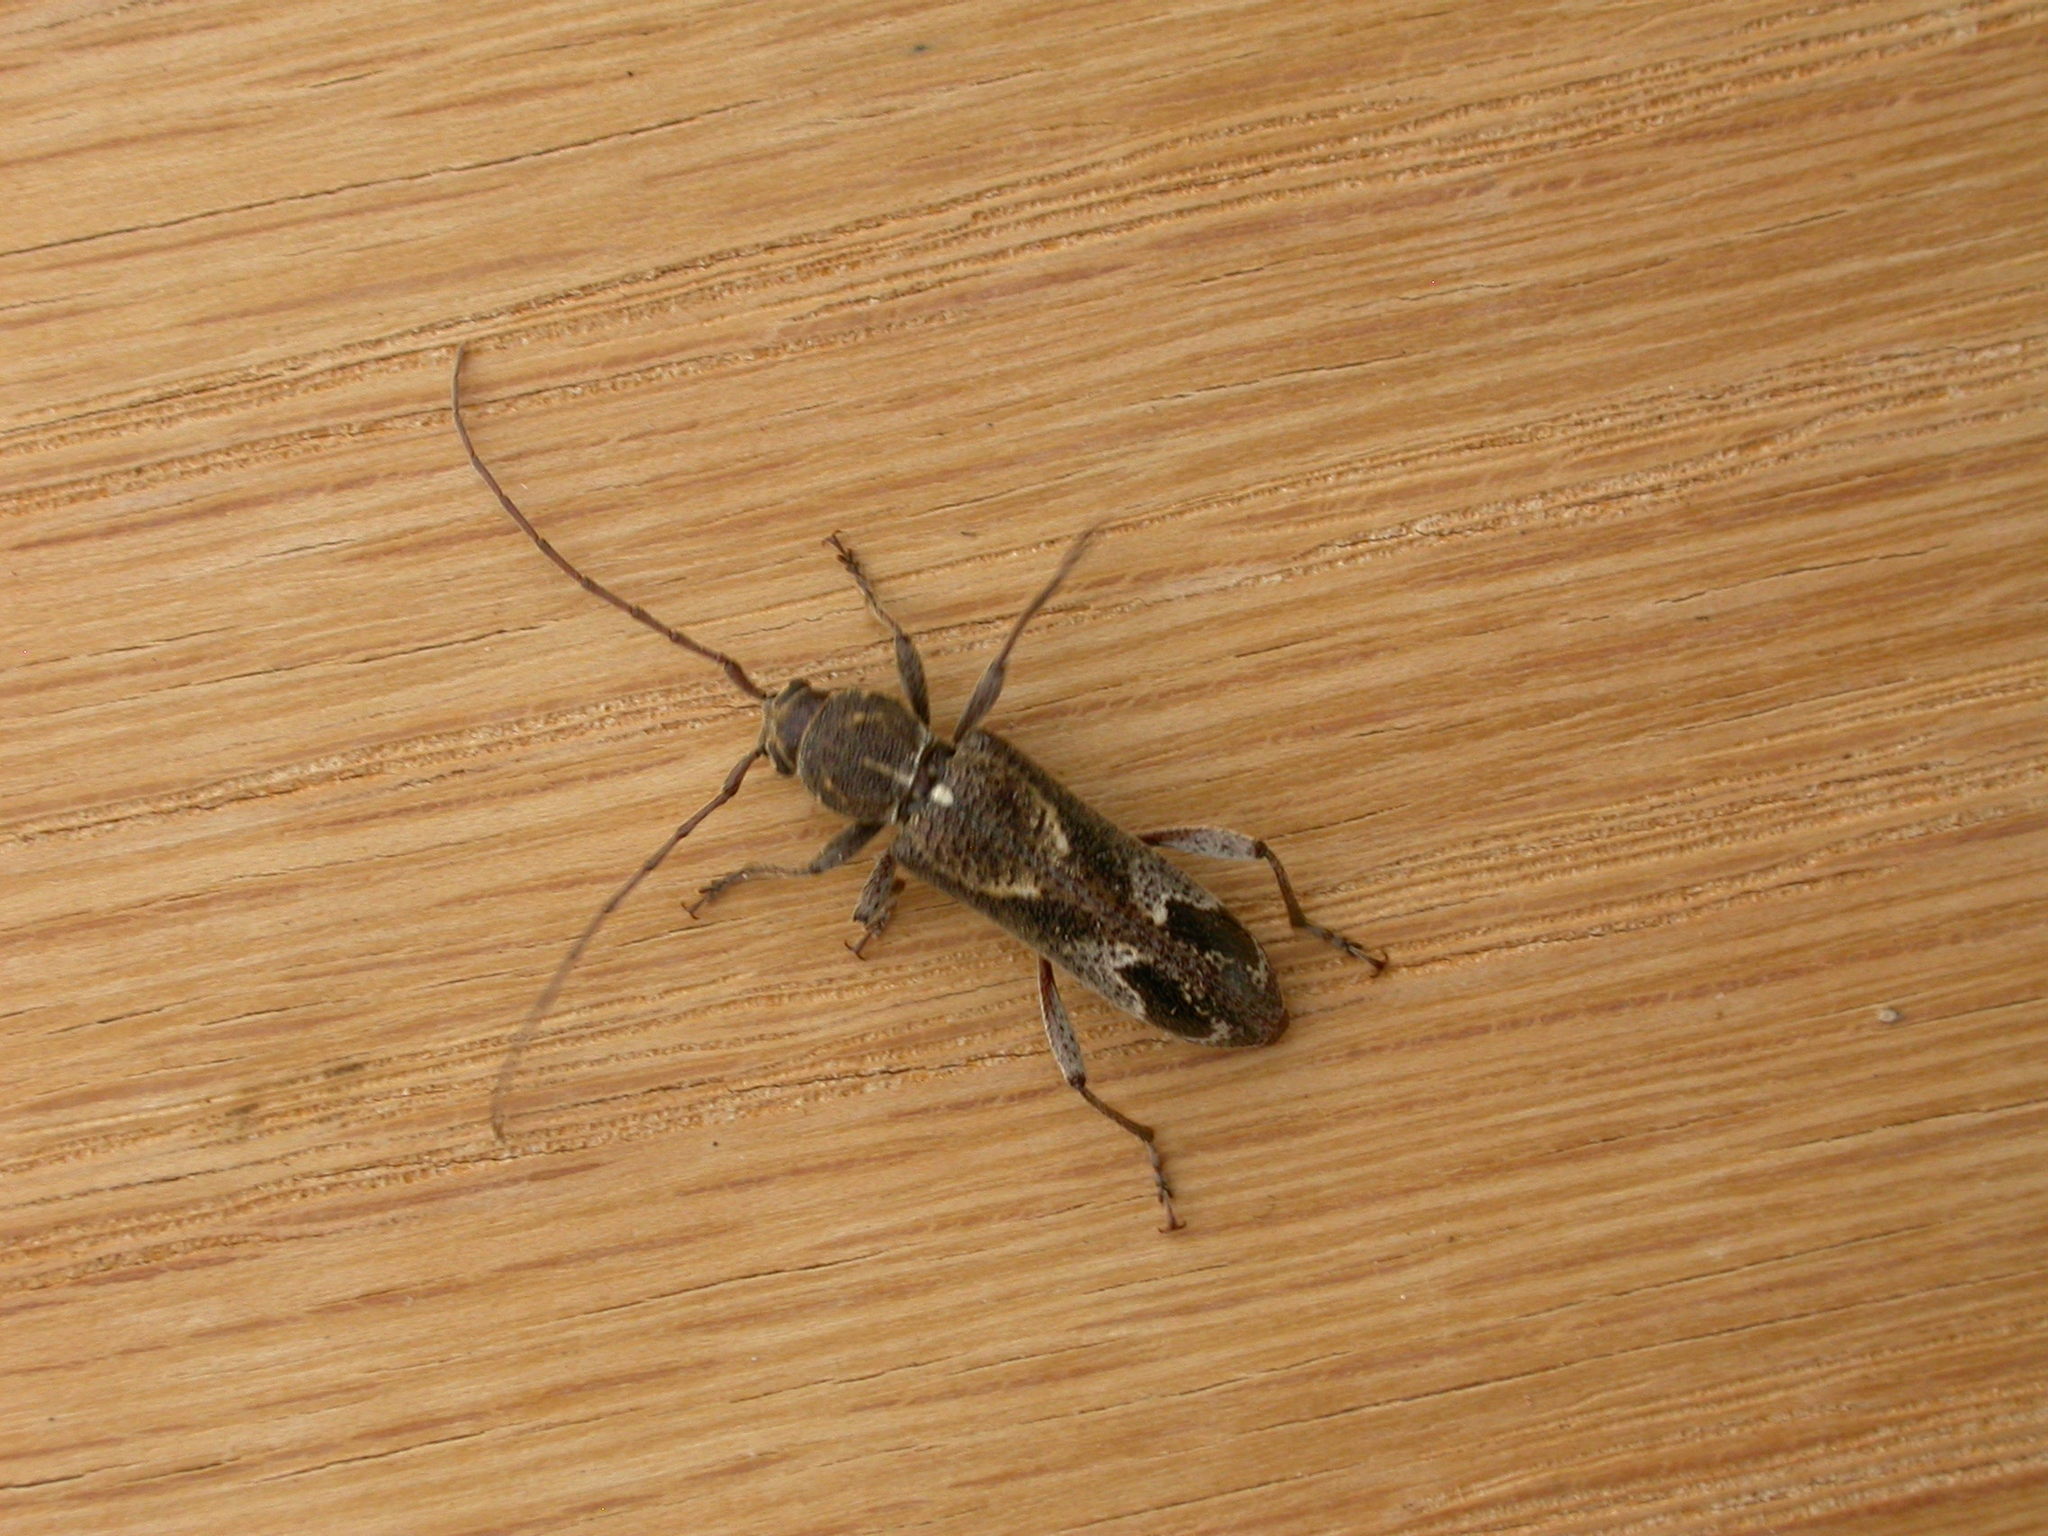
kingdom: Animalia
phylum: Arthropoda
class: Insecta
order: Coleoptera
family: Cerambycidae
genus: Phacodes
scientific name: Phacodes personatus
